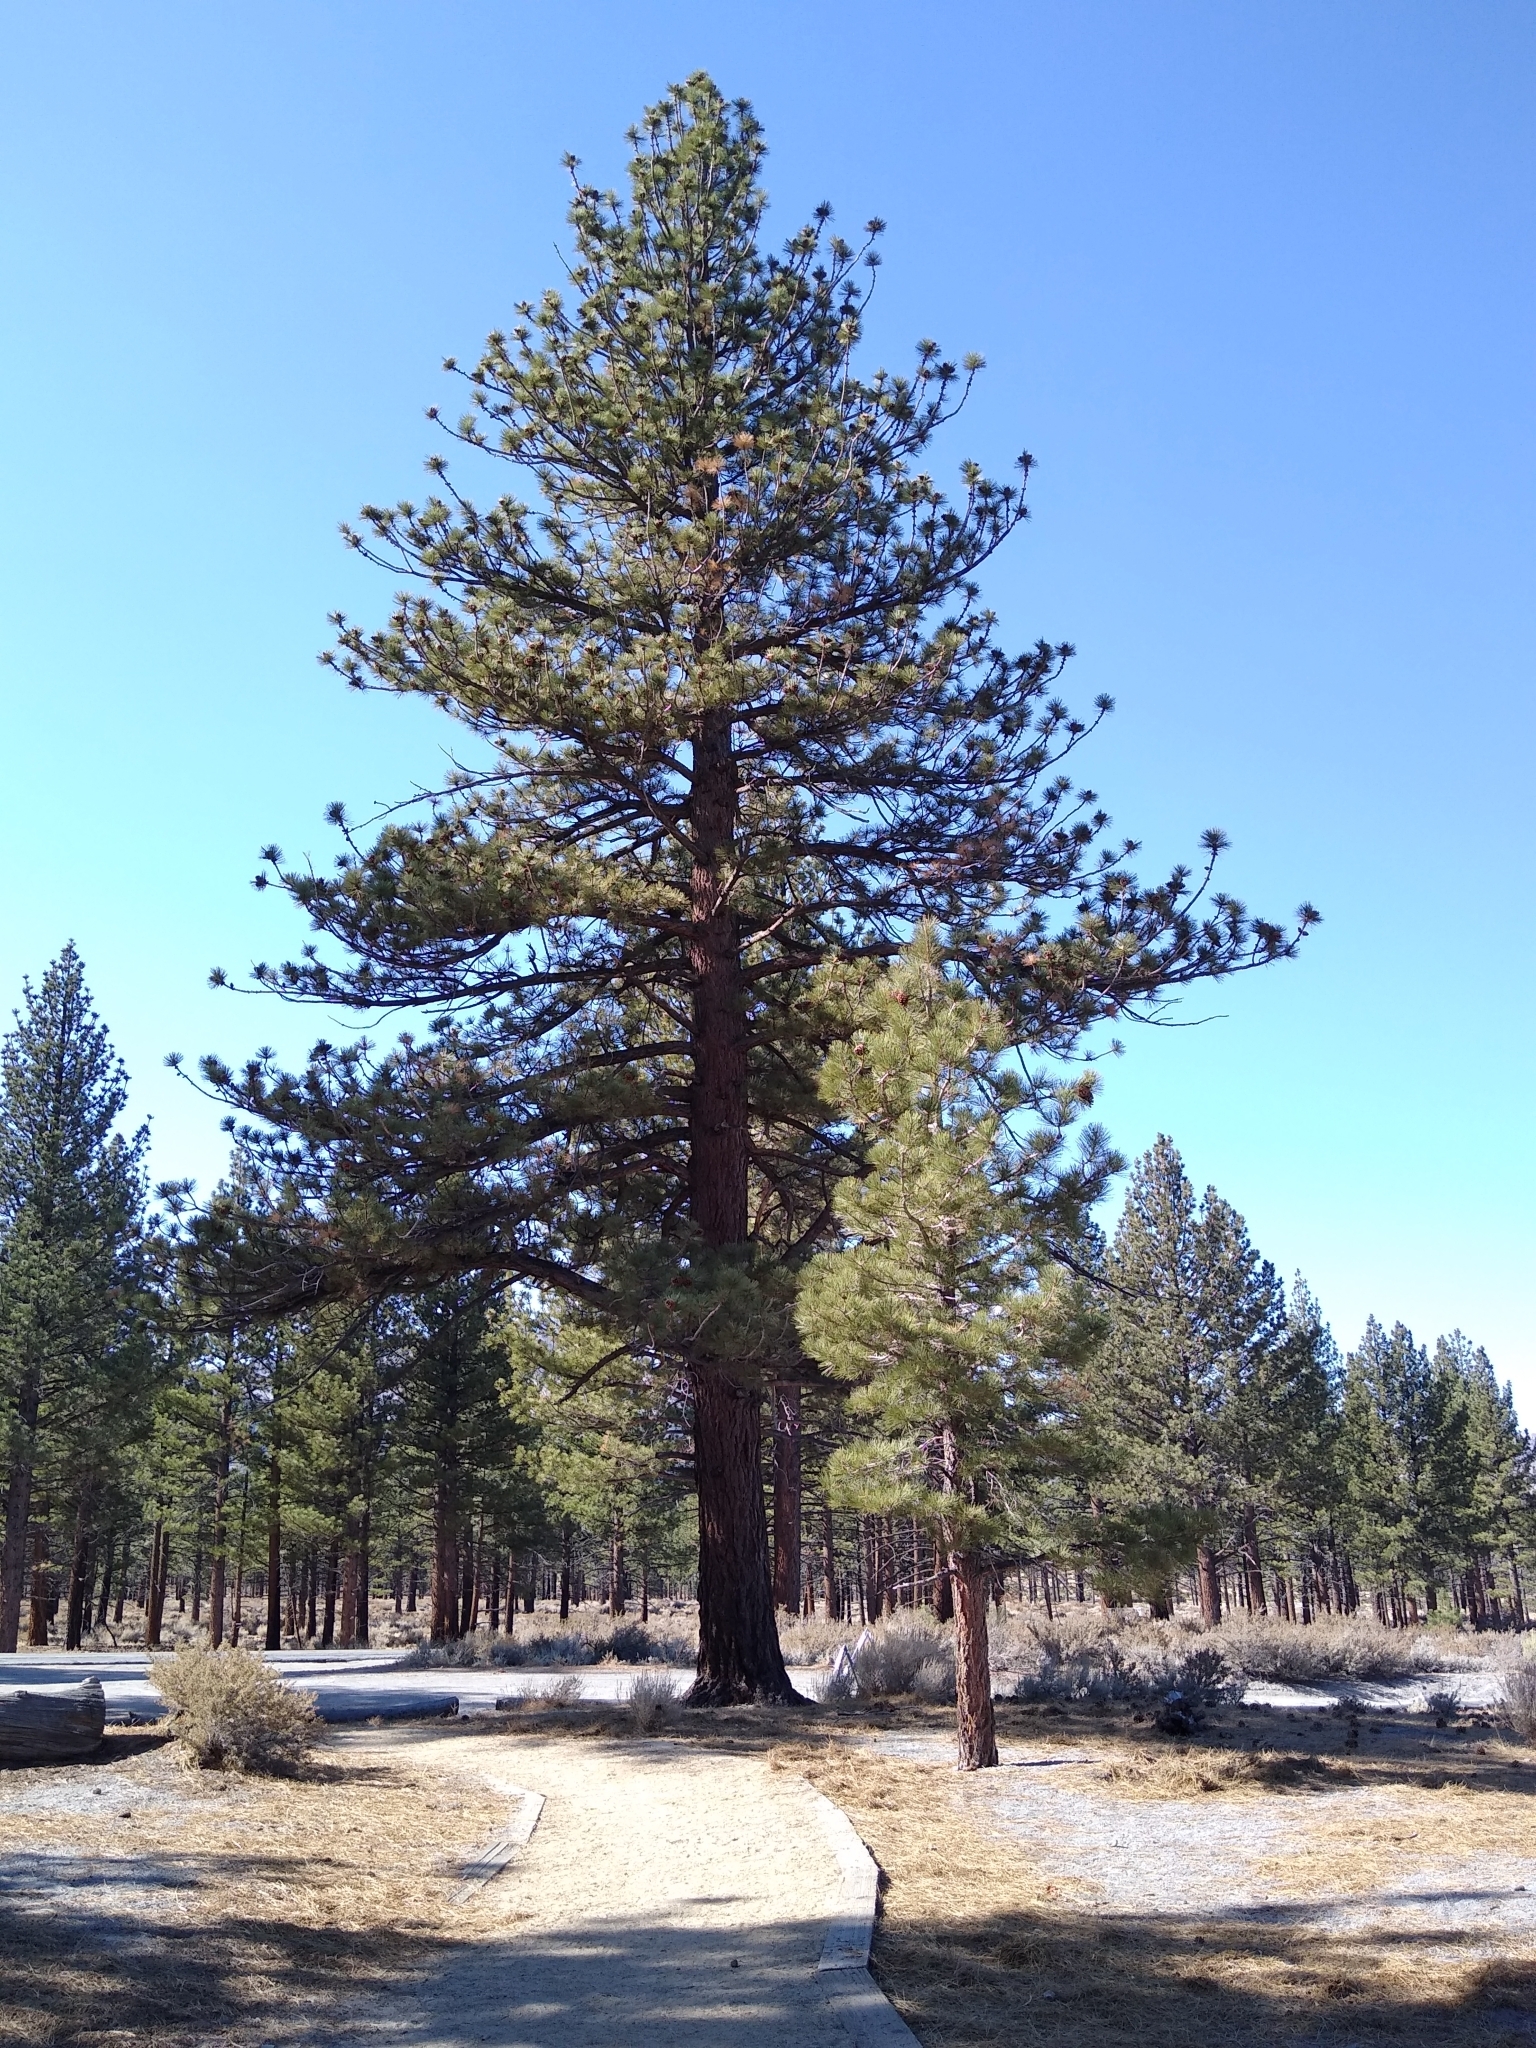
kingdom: Plantae
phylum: Tracheophyta
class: Pinopsida
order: Pinales
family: Pinaceae
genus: Pinus
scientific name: Pinus jeffreyi
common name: Jeffrey pine
